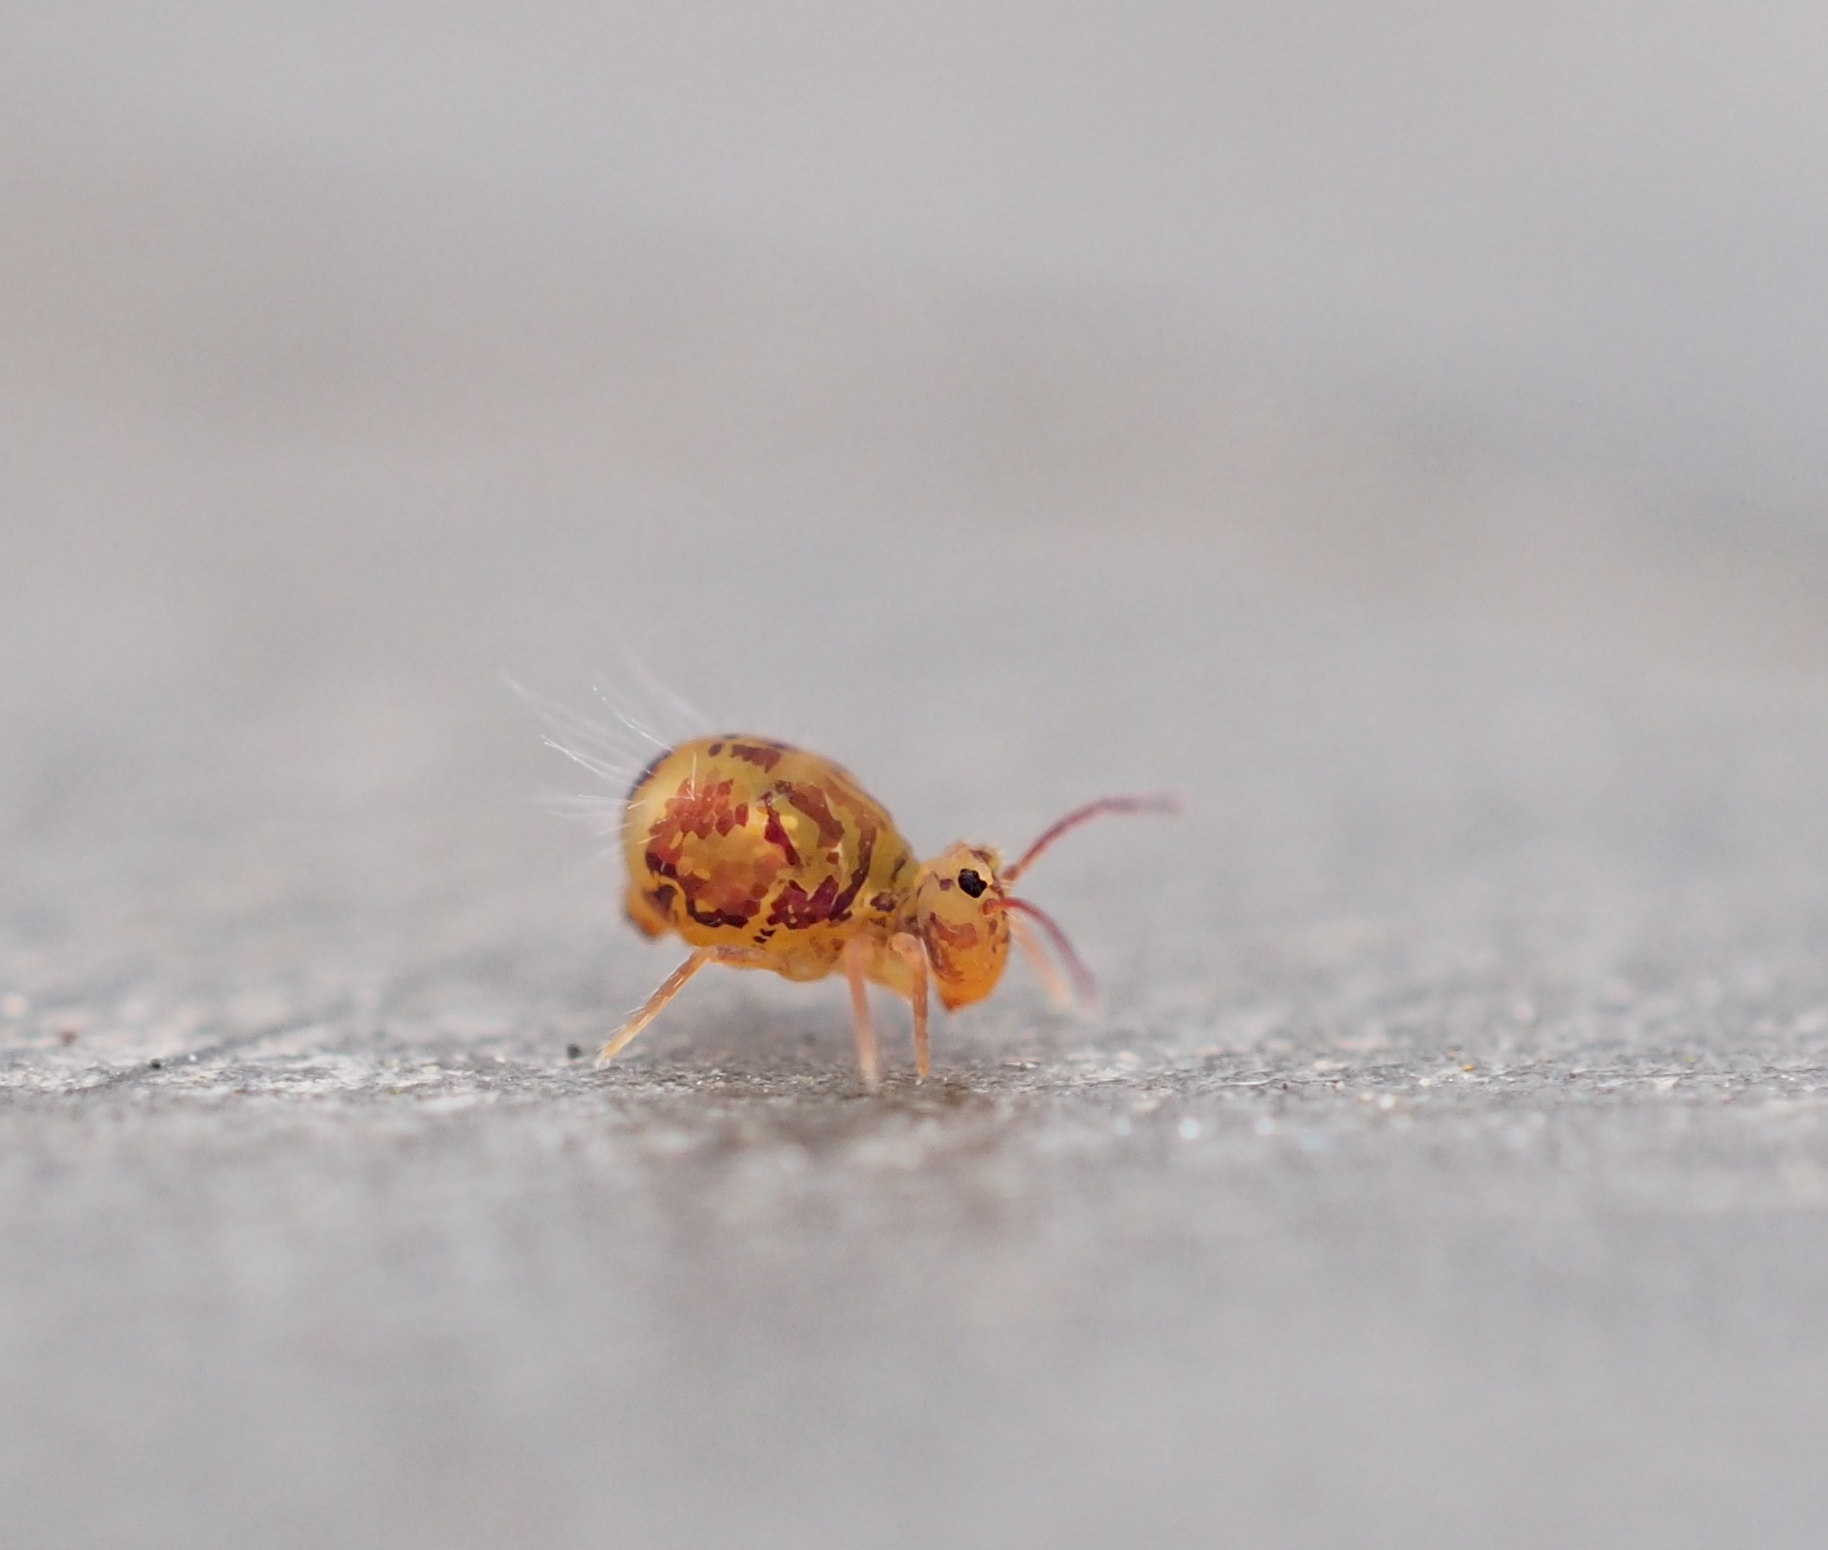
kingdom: Animalia
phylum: Arthropoda
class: Collembola
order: Symphypleona
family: Dicyrtomidae
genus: Dicyrtomina
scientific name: Dicyrtomina ornata
